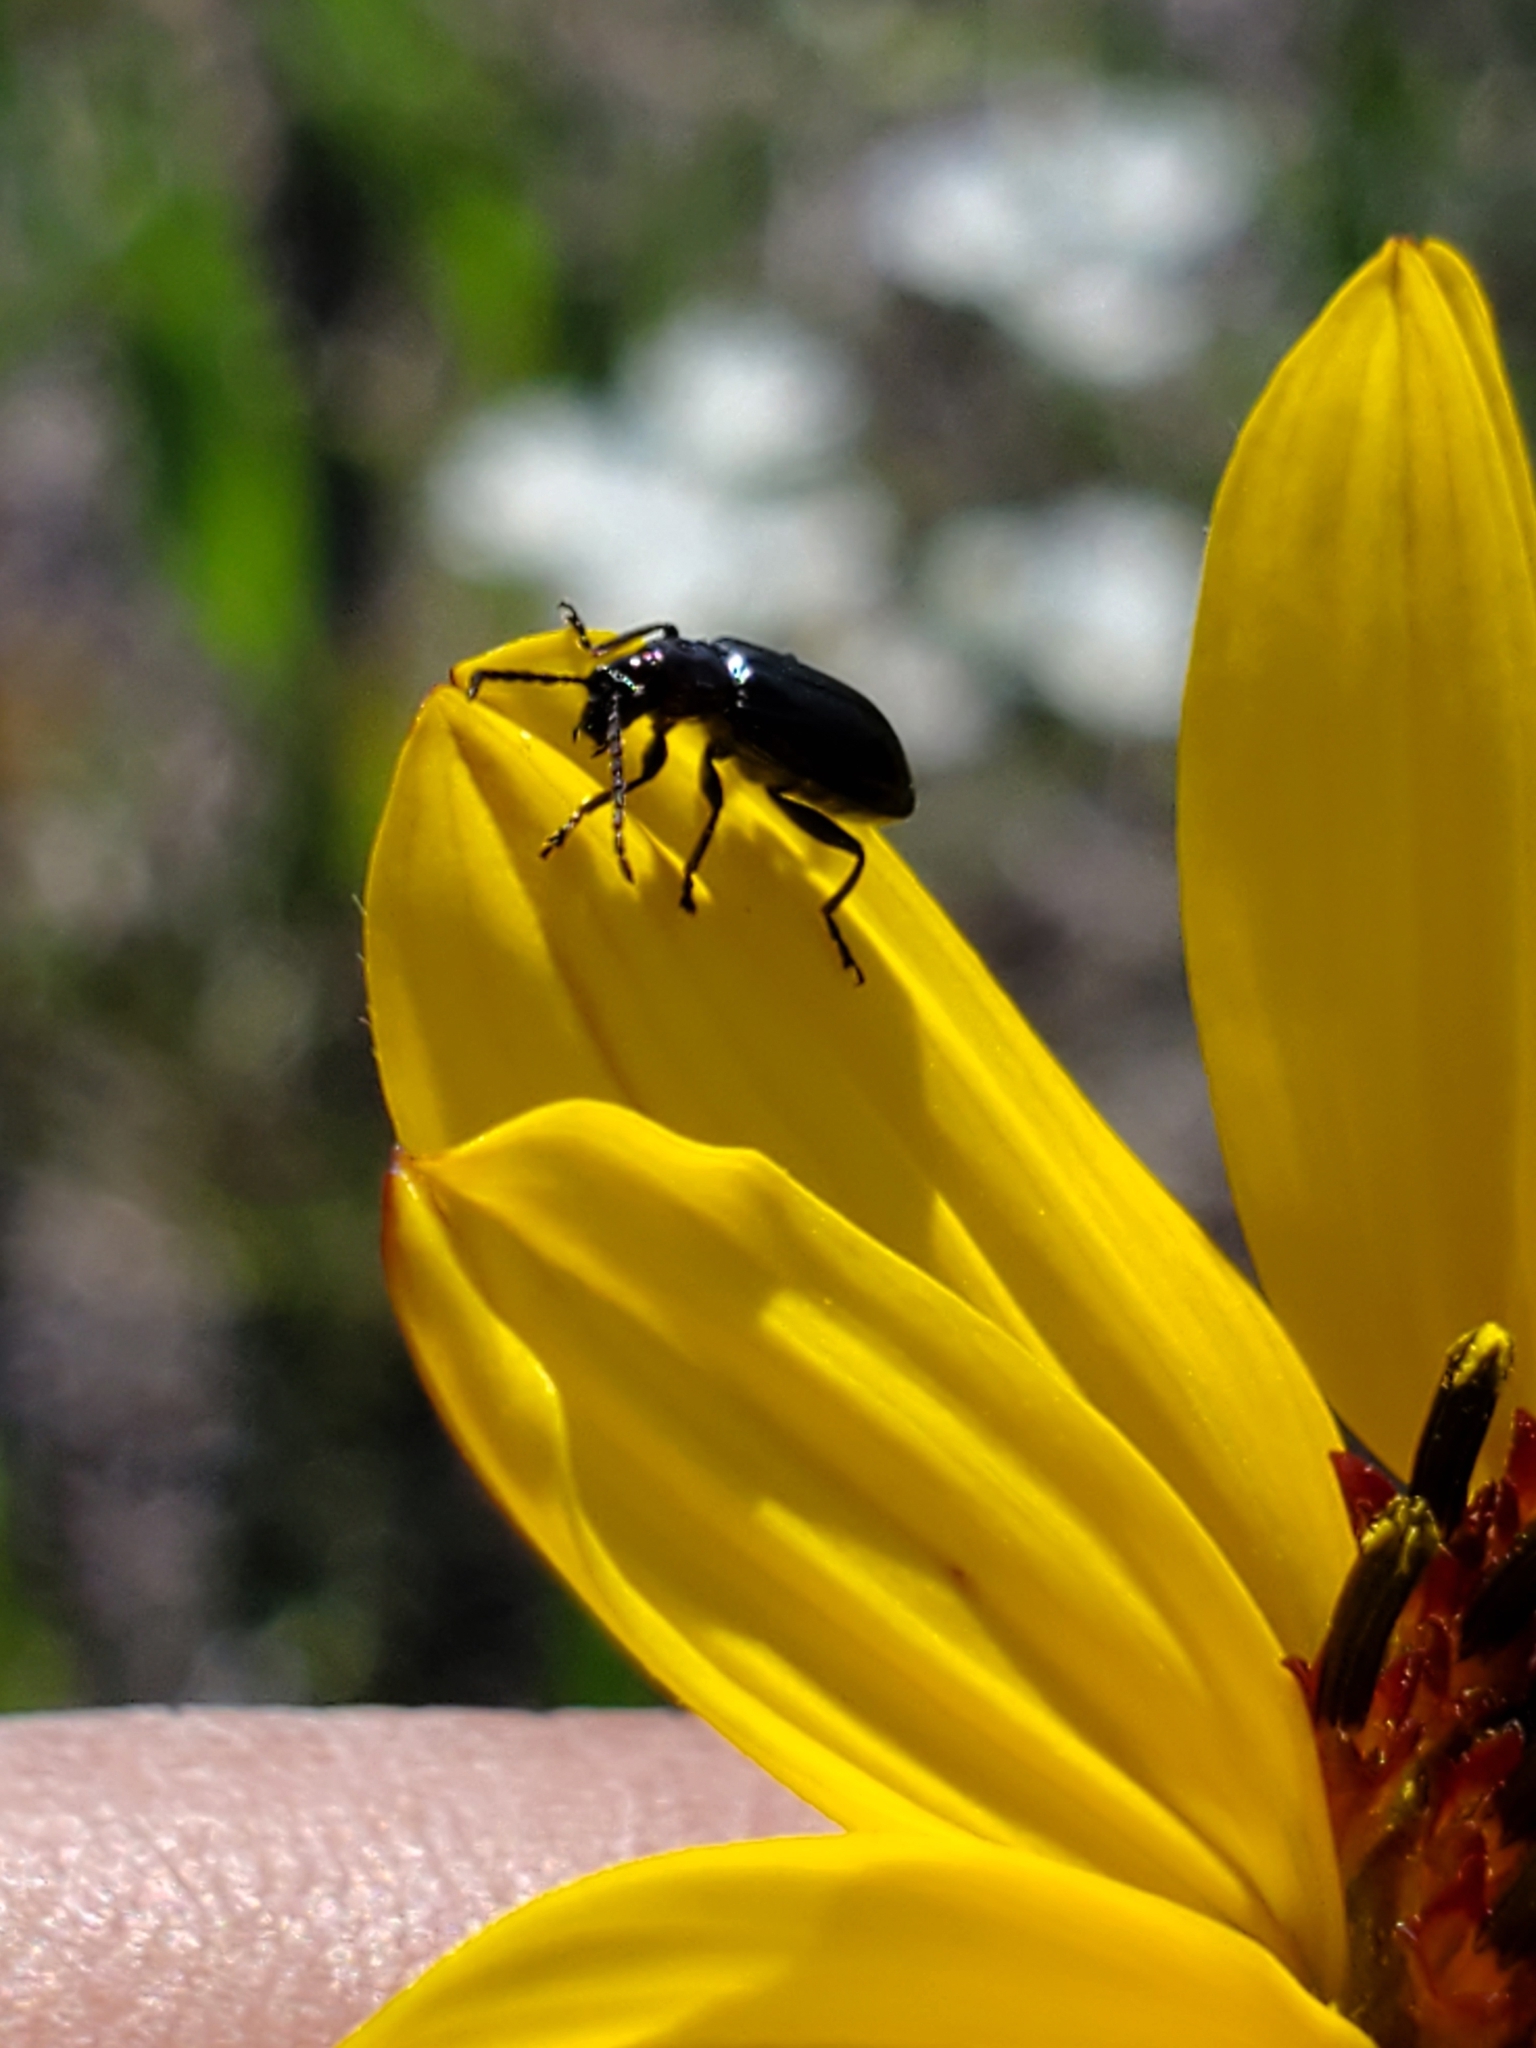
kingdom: Animalia
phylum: Arthropoda
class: Insecta
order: Coleoptera
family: Chrysomelidae
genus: Diabrotica
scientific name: Diabrotica cristata
